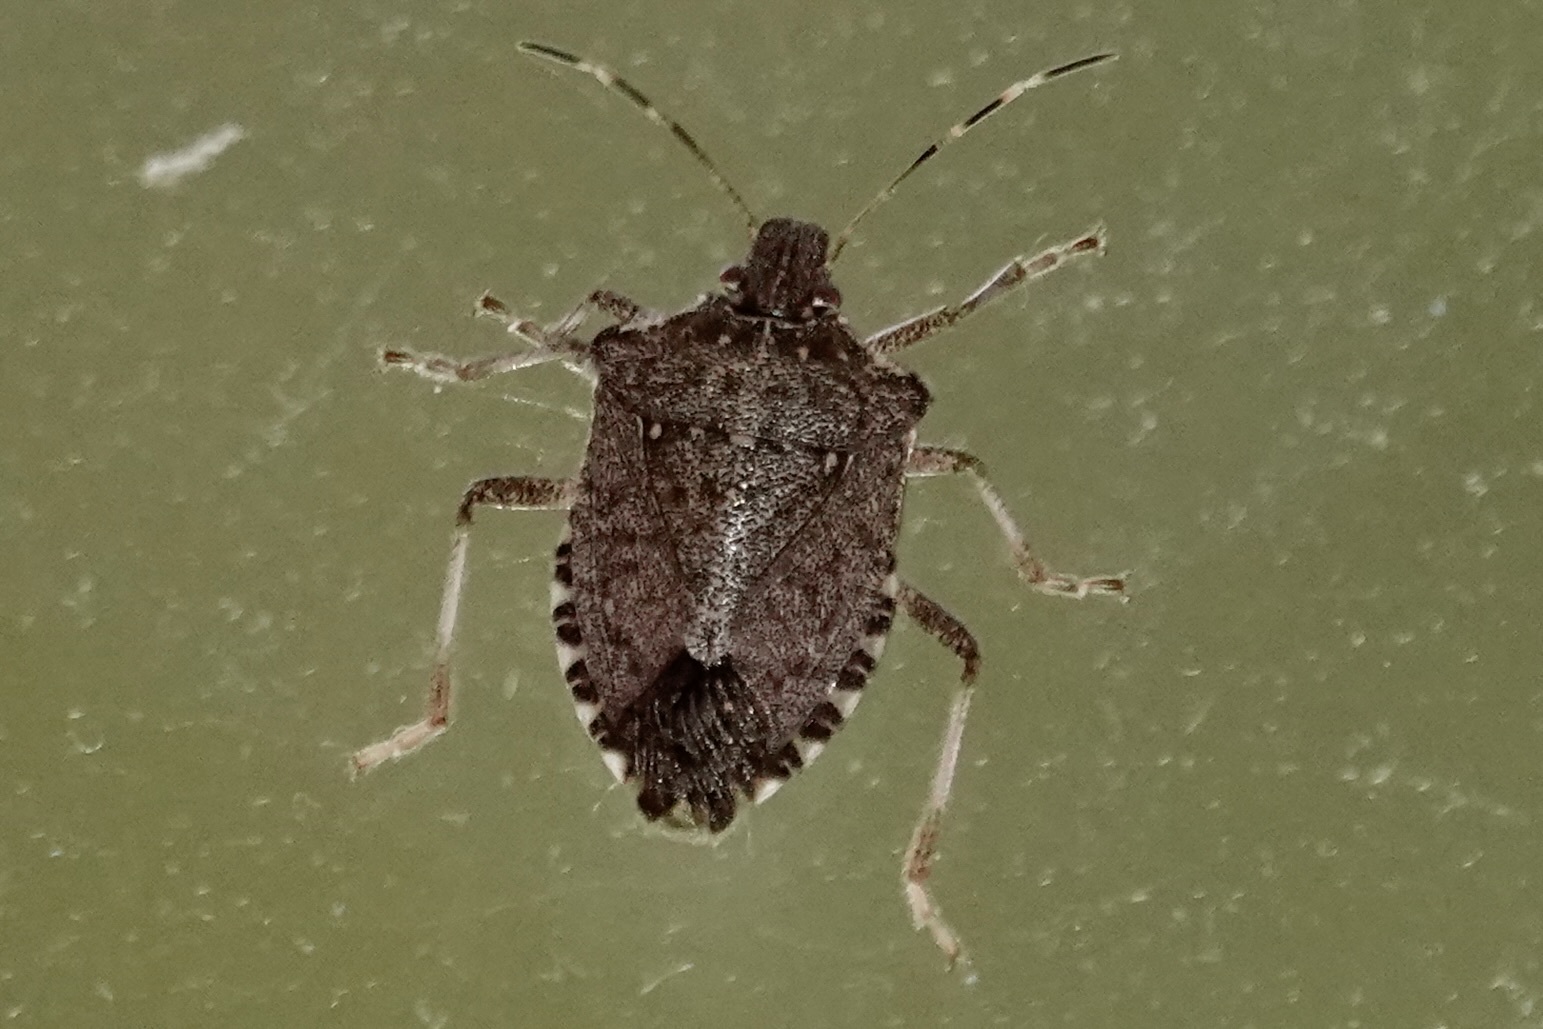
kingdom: Animalia
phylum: Arthropoda
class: Insecta
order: Hemiptera
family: Pentatomidae
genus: Halyomorpha
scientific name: Halyomorpha halys
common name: Brown marmorated stink bug
